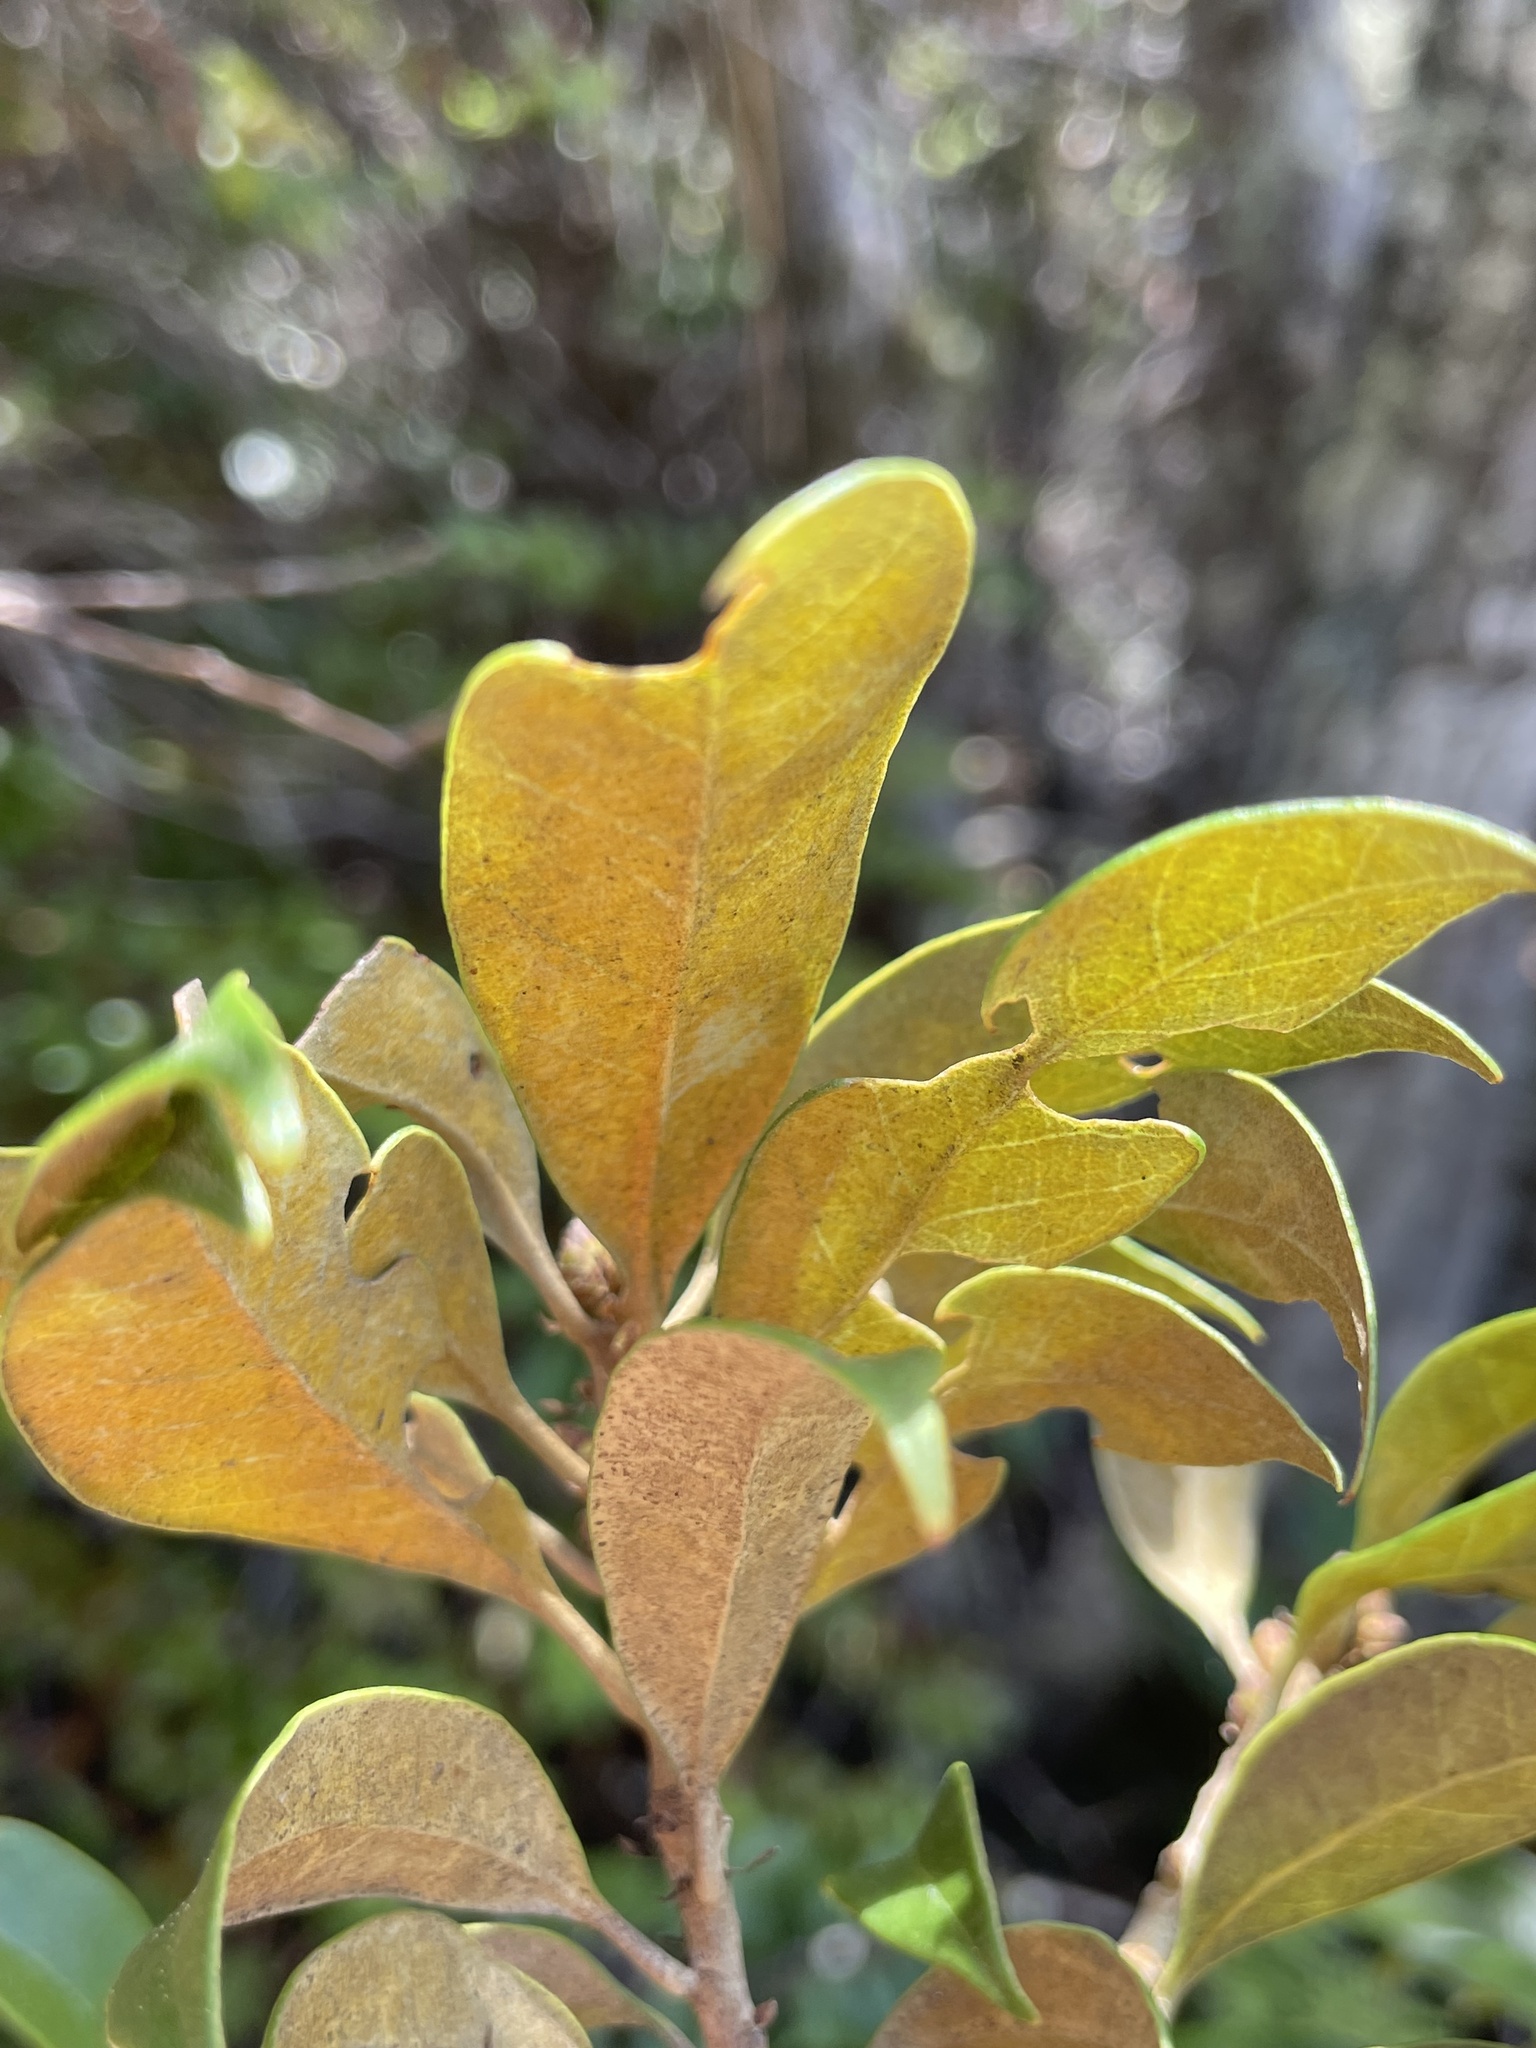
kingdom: Plantae
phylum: Tracheophyta
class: Magnoliopsida
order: Fagales
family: Fagaceae
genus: Chrysolepis
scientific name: Chrysolepis chrysophylla
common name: Giant chinquapin
